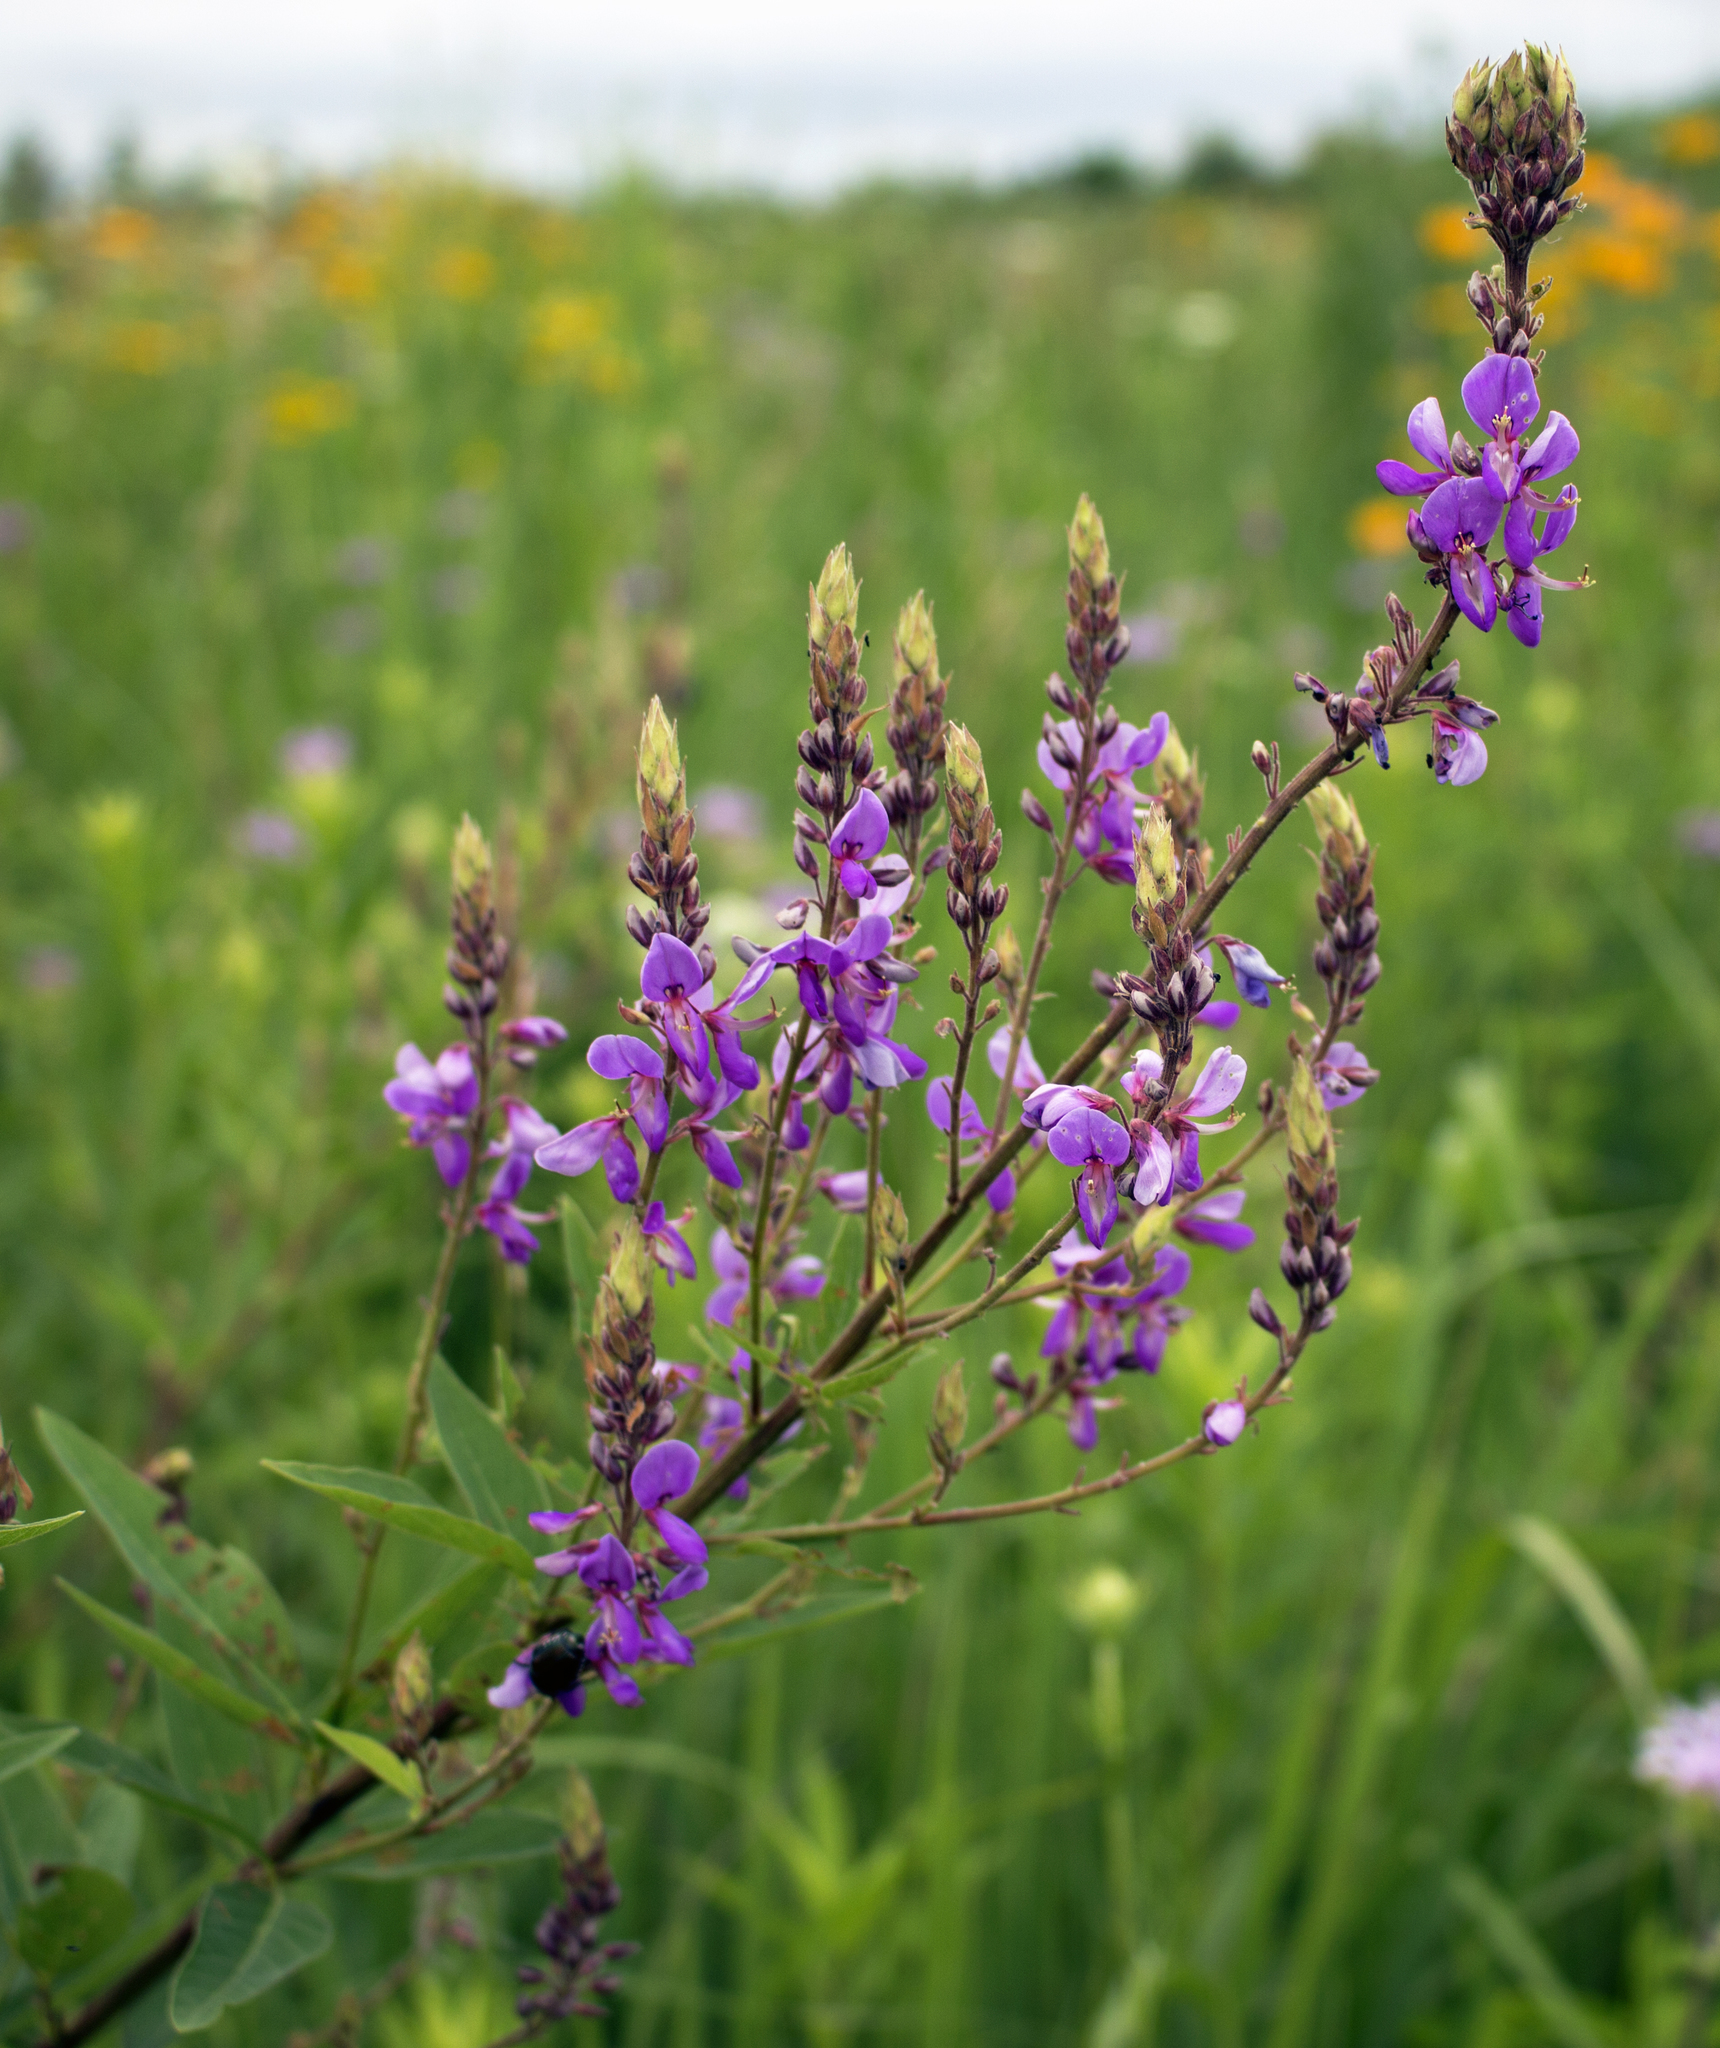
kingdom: Plantae
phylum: Tracheophyta
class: Magnoliopsida
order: Fabales
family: Fabaceae
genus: Desmodium
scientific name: Desmodium canadense
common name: Canada tick-trefoil
